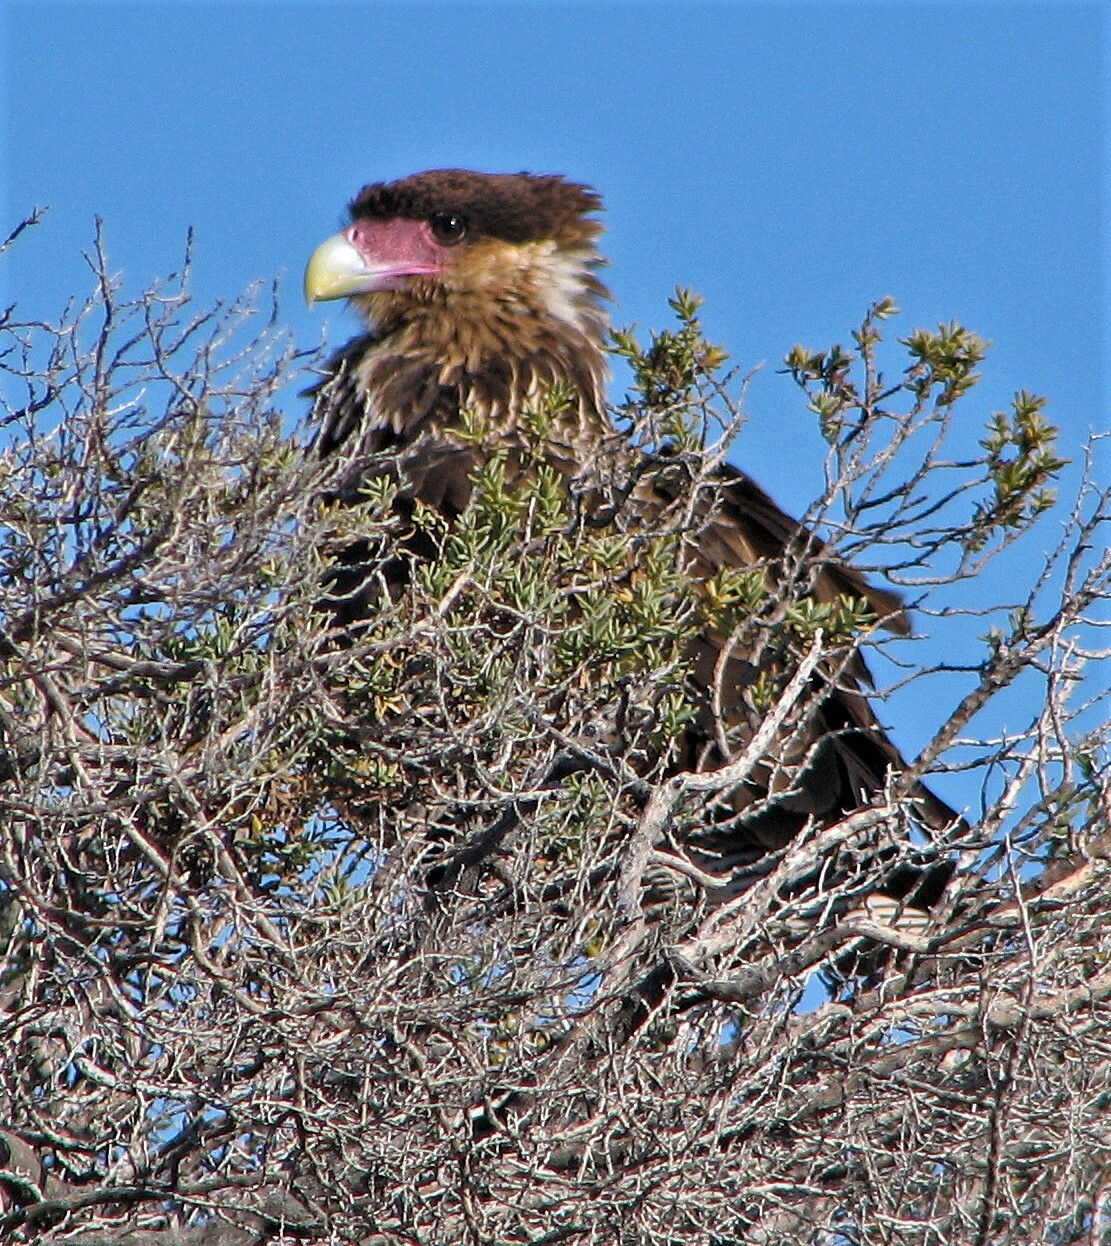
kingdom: Animalia
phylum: Chordata
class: Aves
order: Falconiformes
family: Falconidae
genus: Caracara
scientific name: Caracara plancus
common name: Southern caracara
